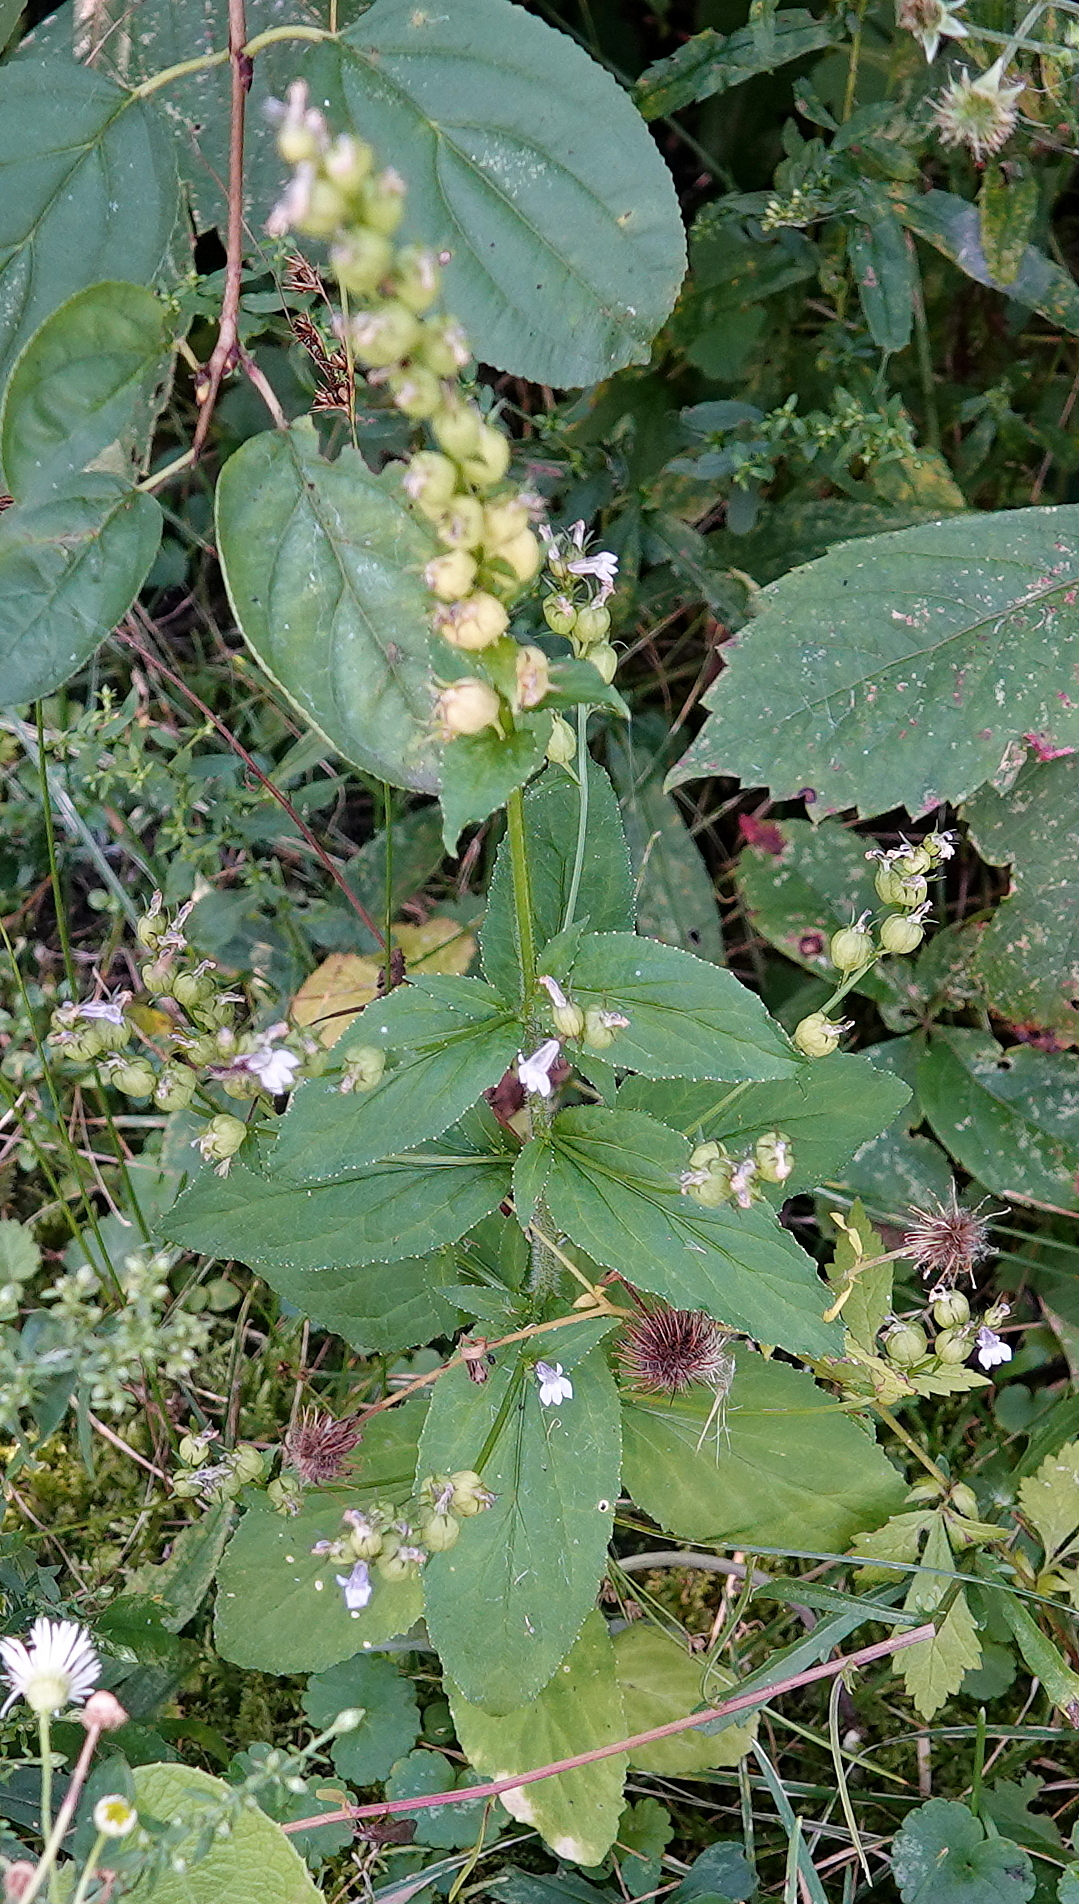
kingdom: Plantae
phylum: Tracheophyta
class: Magnoliopsida
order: Asterales
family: Campanulaceae
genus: Lobelia
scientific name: Lobelia inflata
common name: Indian tobacco
